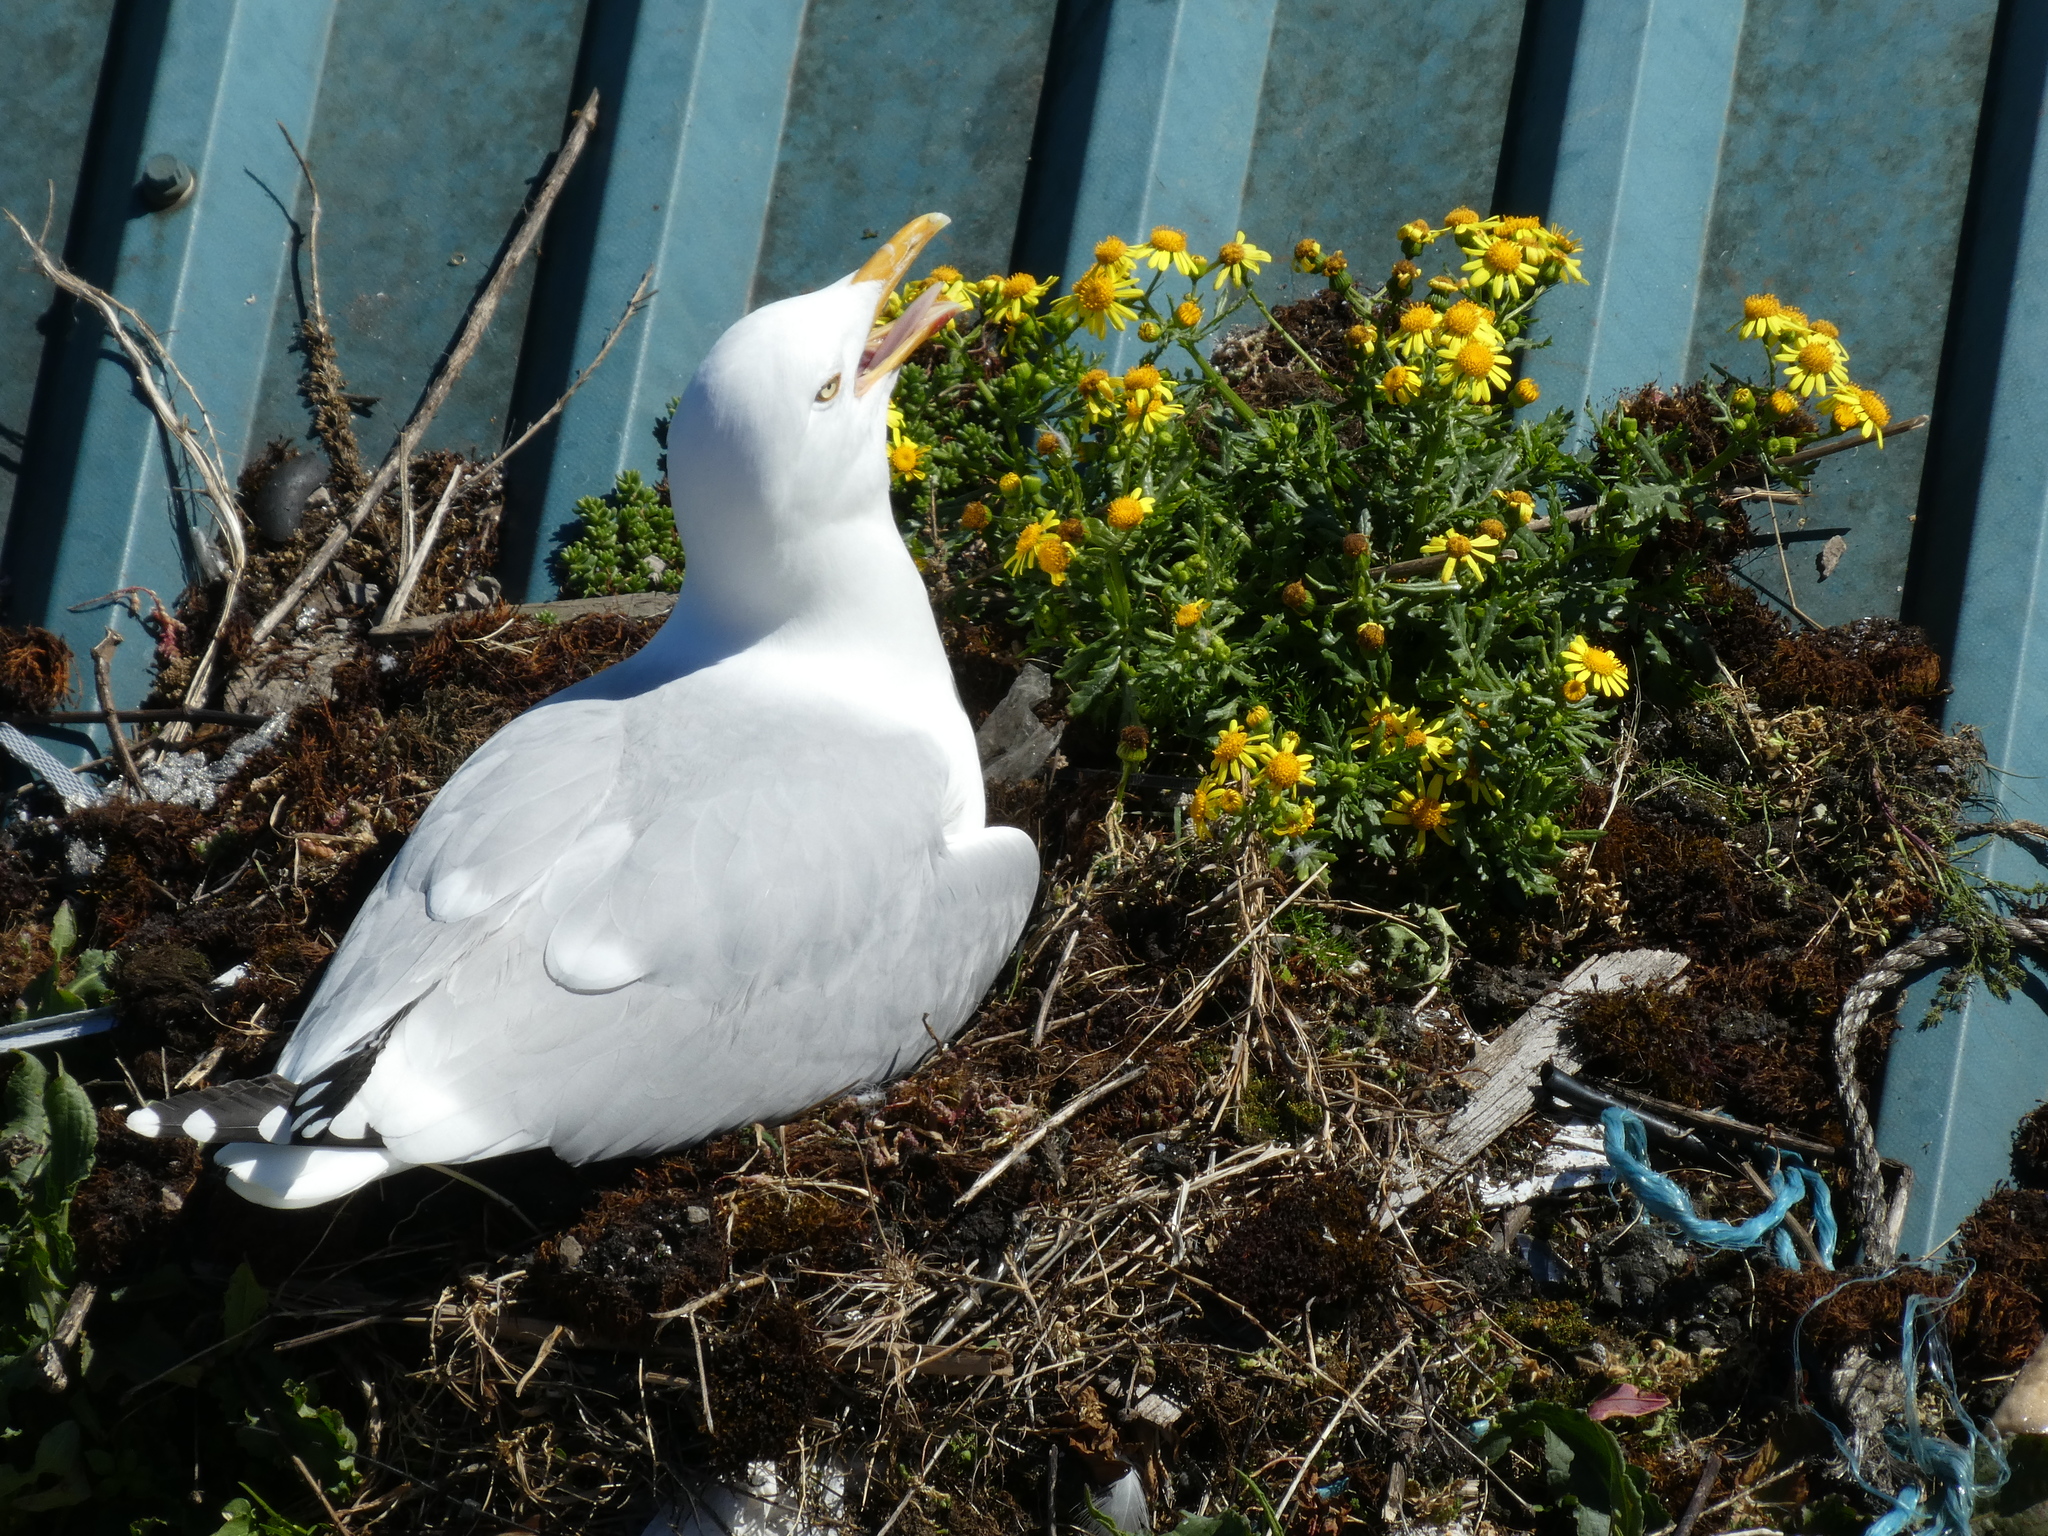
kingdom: Animalia
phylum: Chordata
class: Aves
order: Charadriiformes
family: Laridae
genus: Larus
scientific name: Larus argentatus
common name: Herring gull
